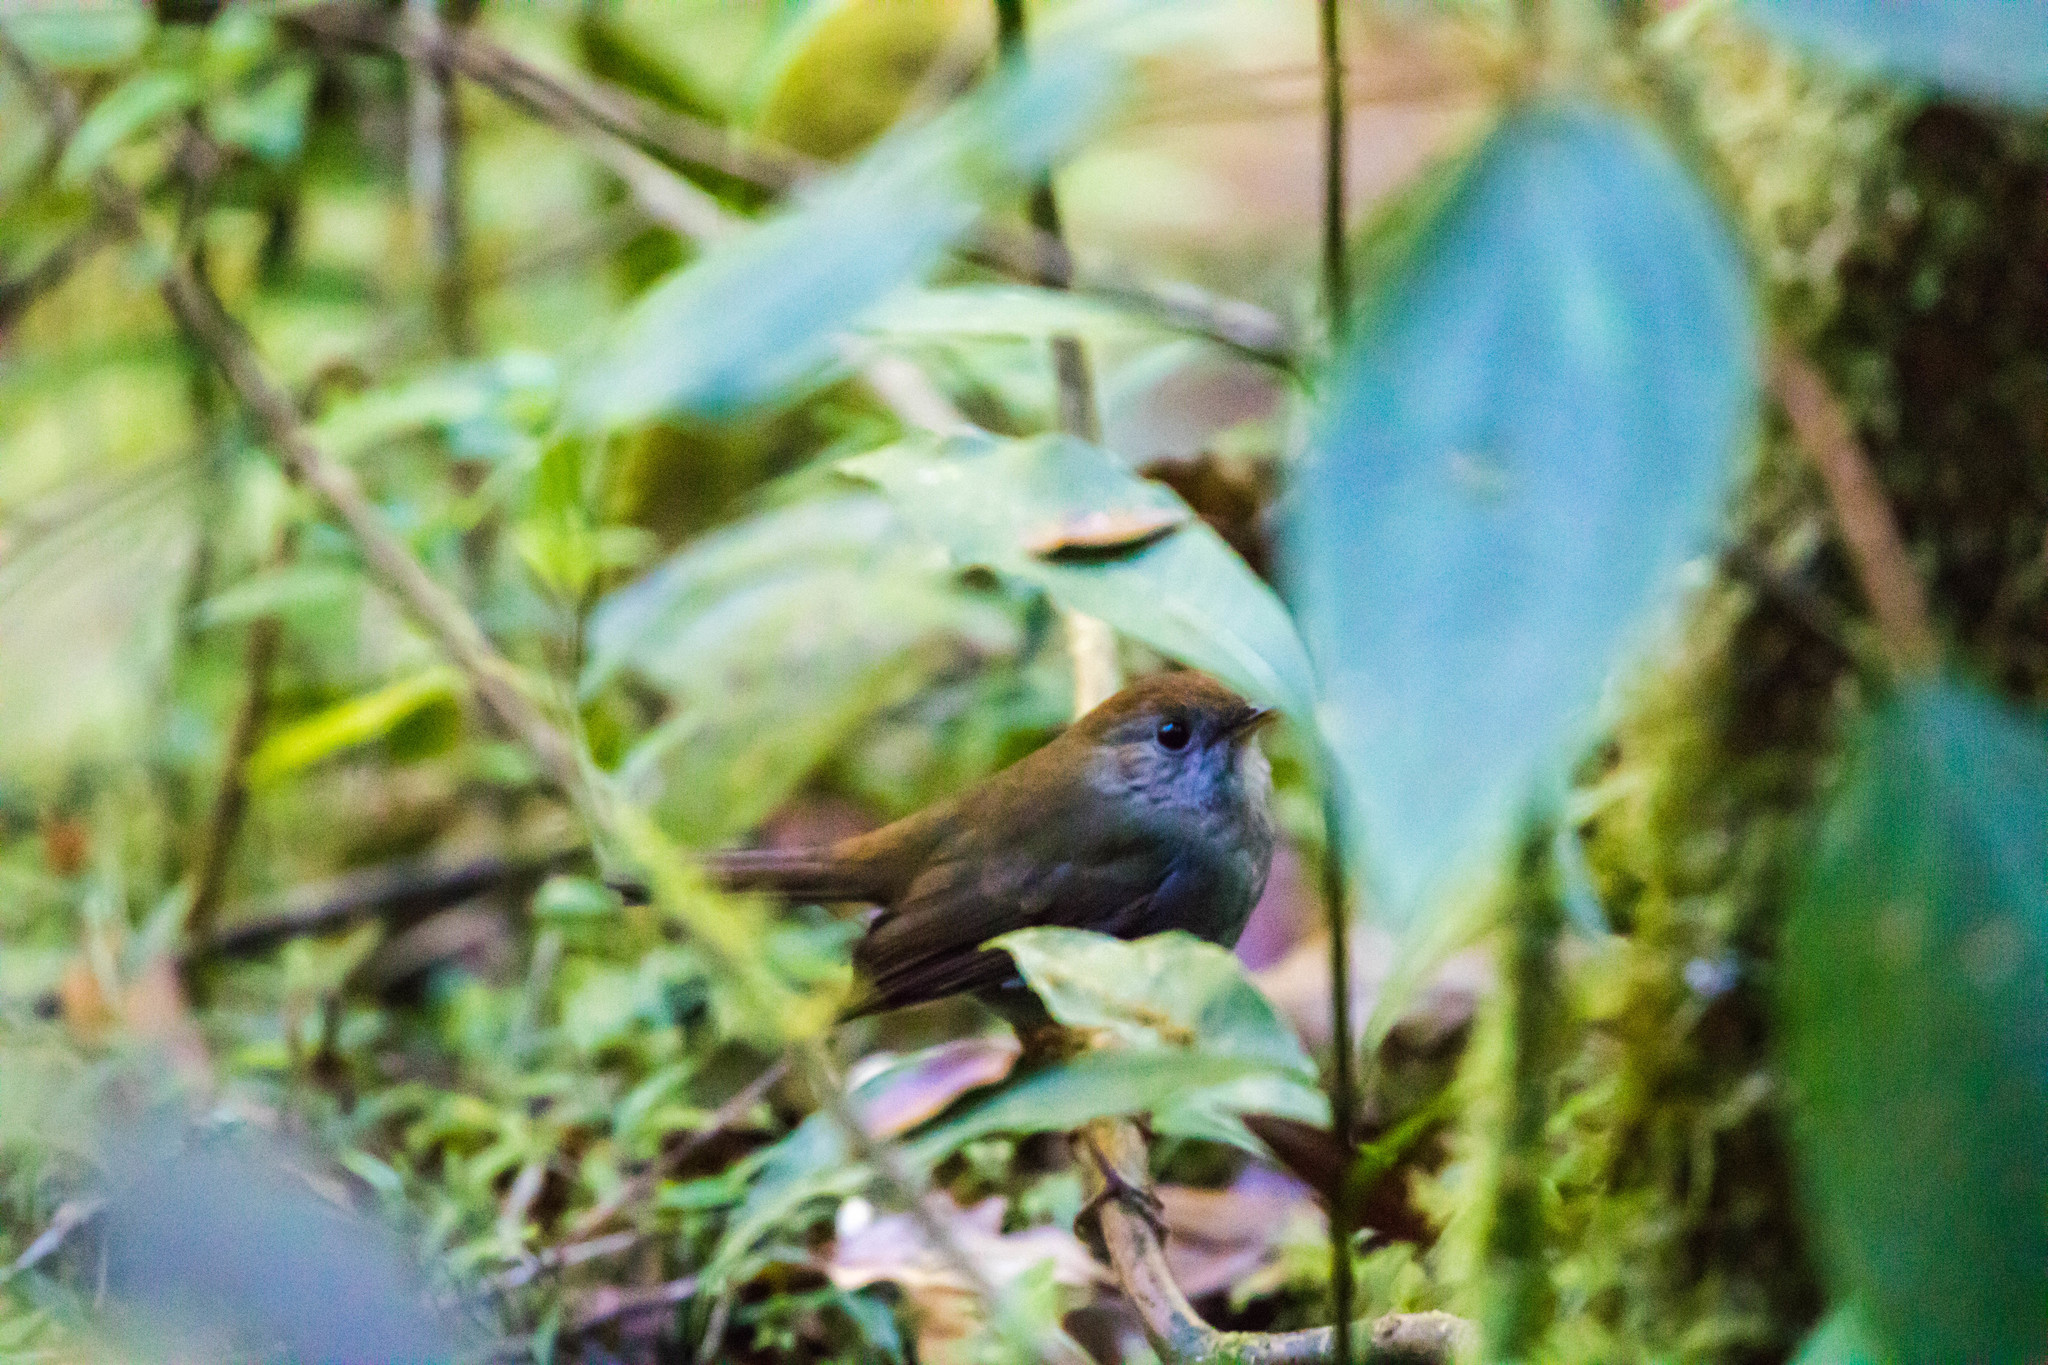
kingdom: Animalia
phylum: Chordata
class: Aves
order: Passeriformes
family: Turdidae
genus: Catharus
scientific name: Catharus frantzii
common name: Ruddy-capped nightingale-thrush
